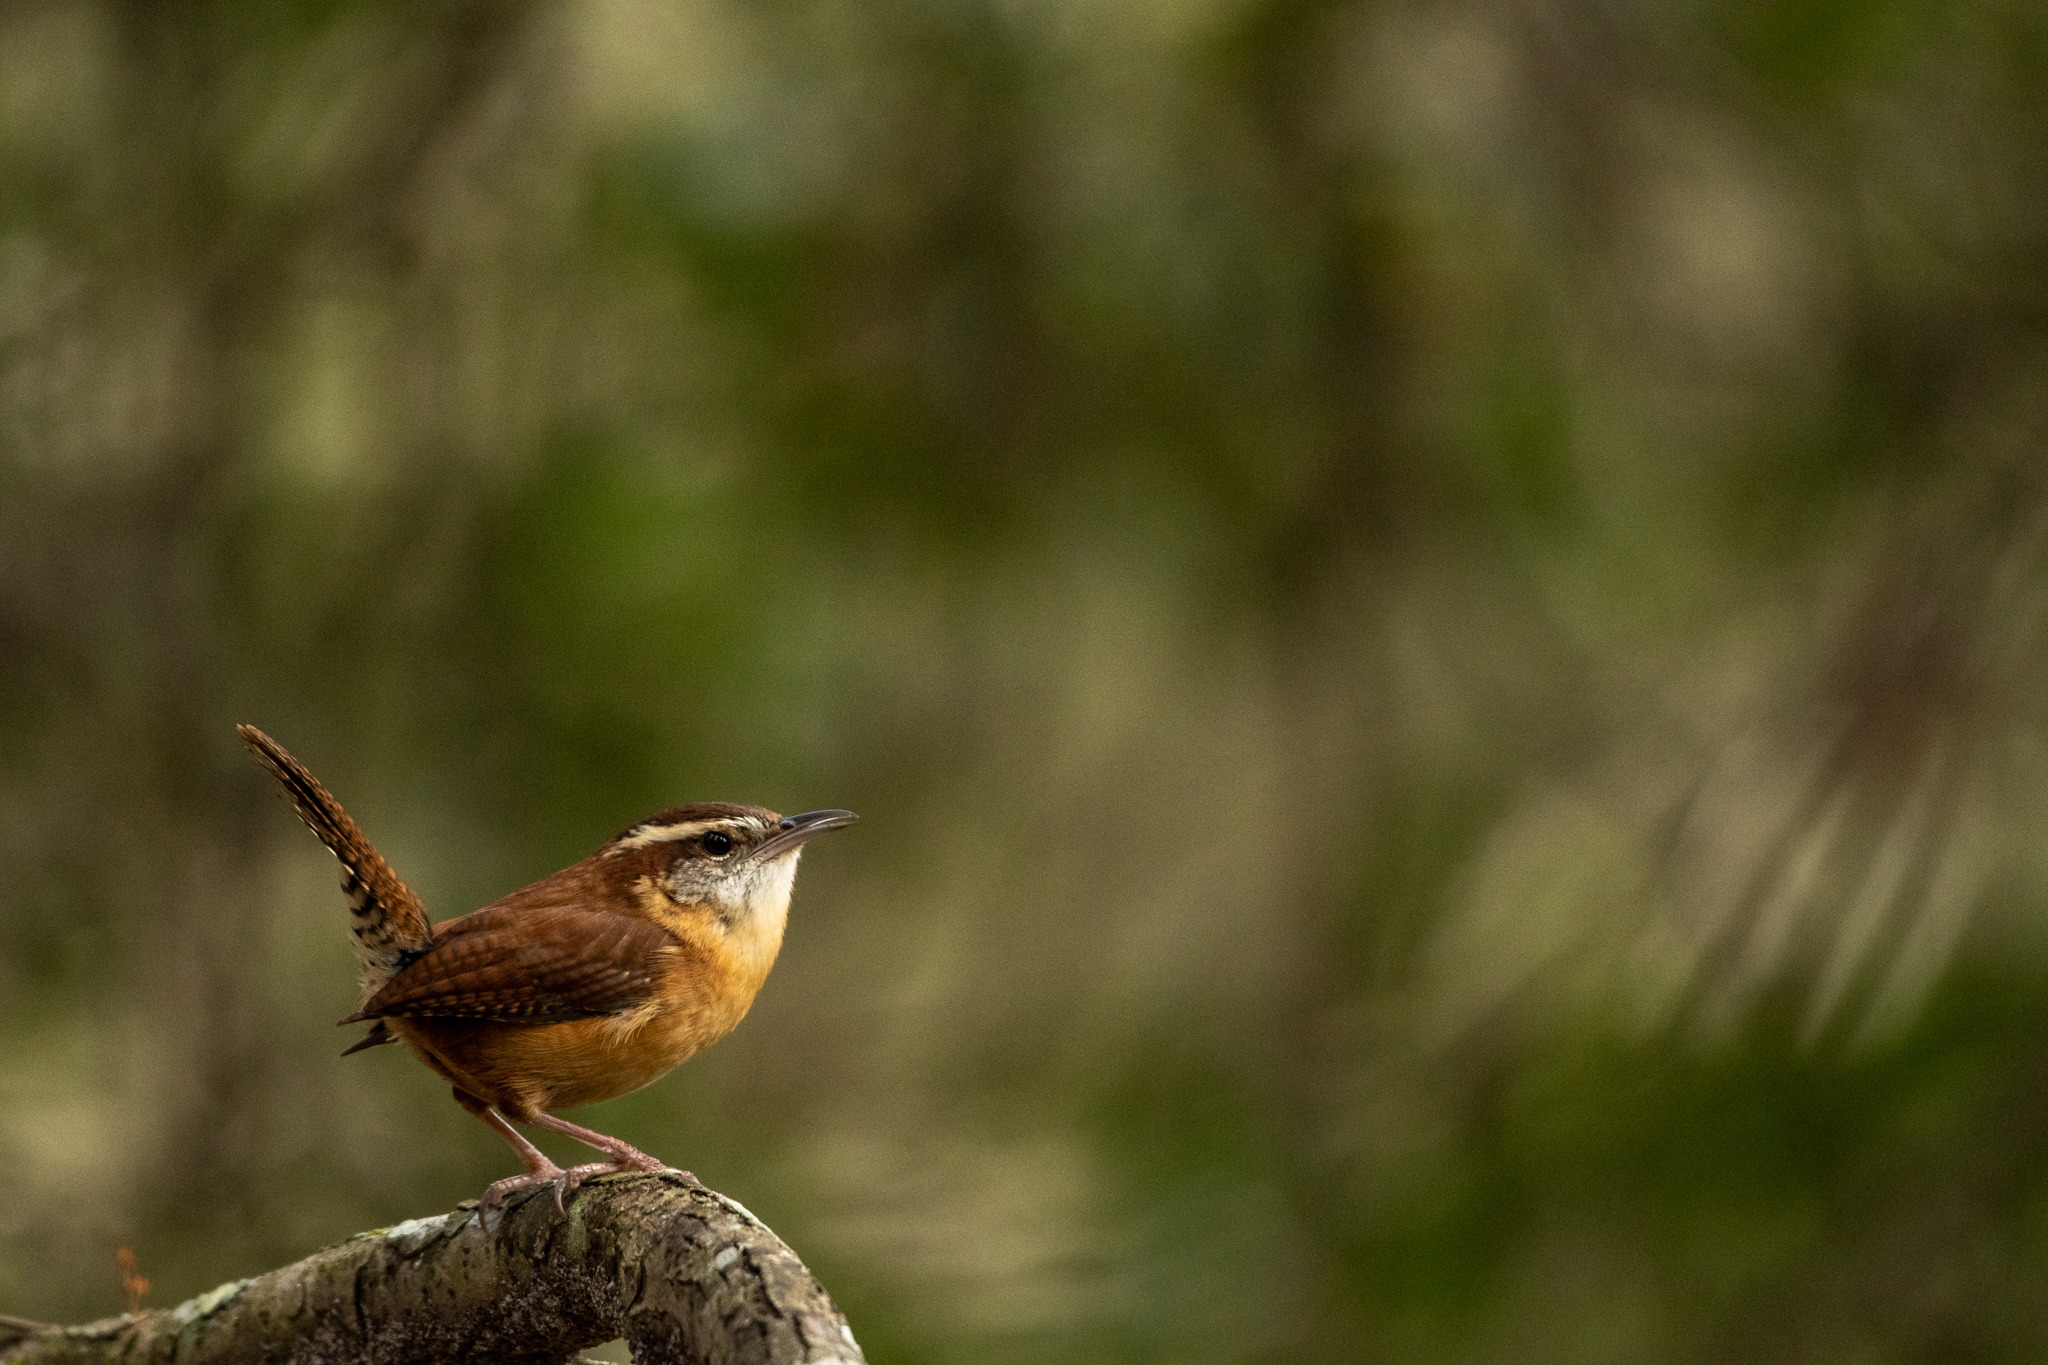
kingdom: Animalia
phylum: Chordata
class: Aves
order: Passeriformes
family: Troglodytidae
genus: Thryothorus
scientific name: Thryothorus ludovicianus
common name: Carolina wren
